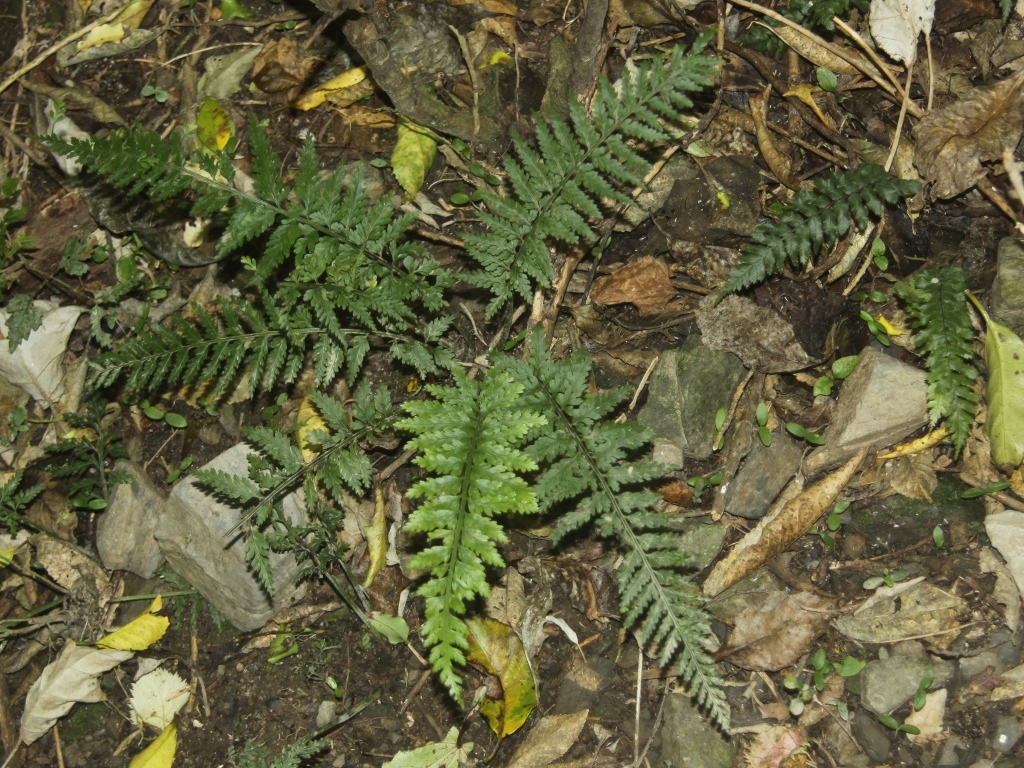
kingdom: Plantae
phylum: Tracheophyta
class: Polypodiopsida
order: Polypodiales
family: Aspleniaceae
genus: Asplenium
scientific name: Asplenium bulbiferum
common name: Mother fern
